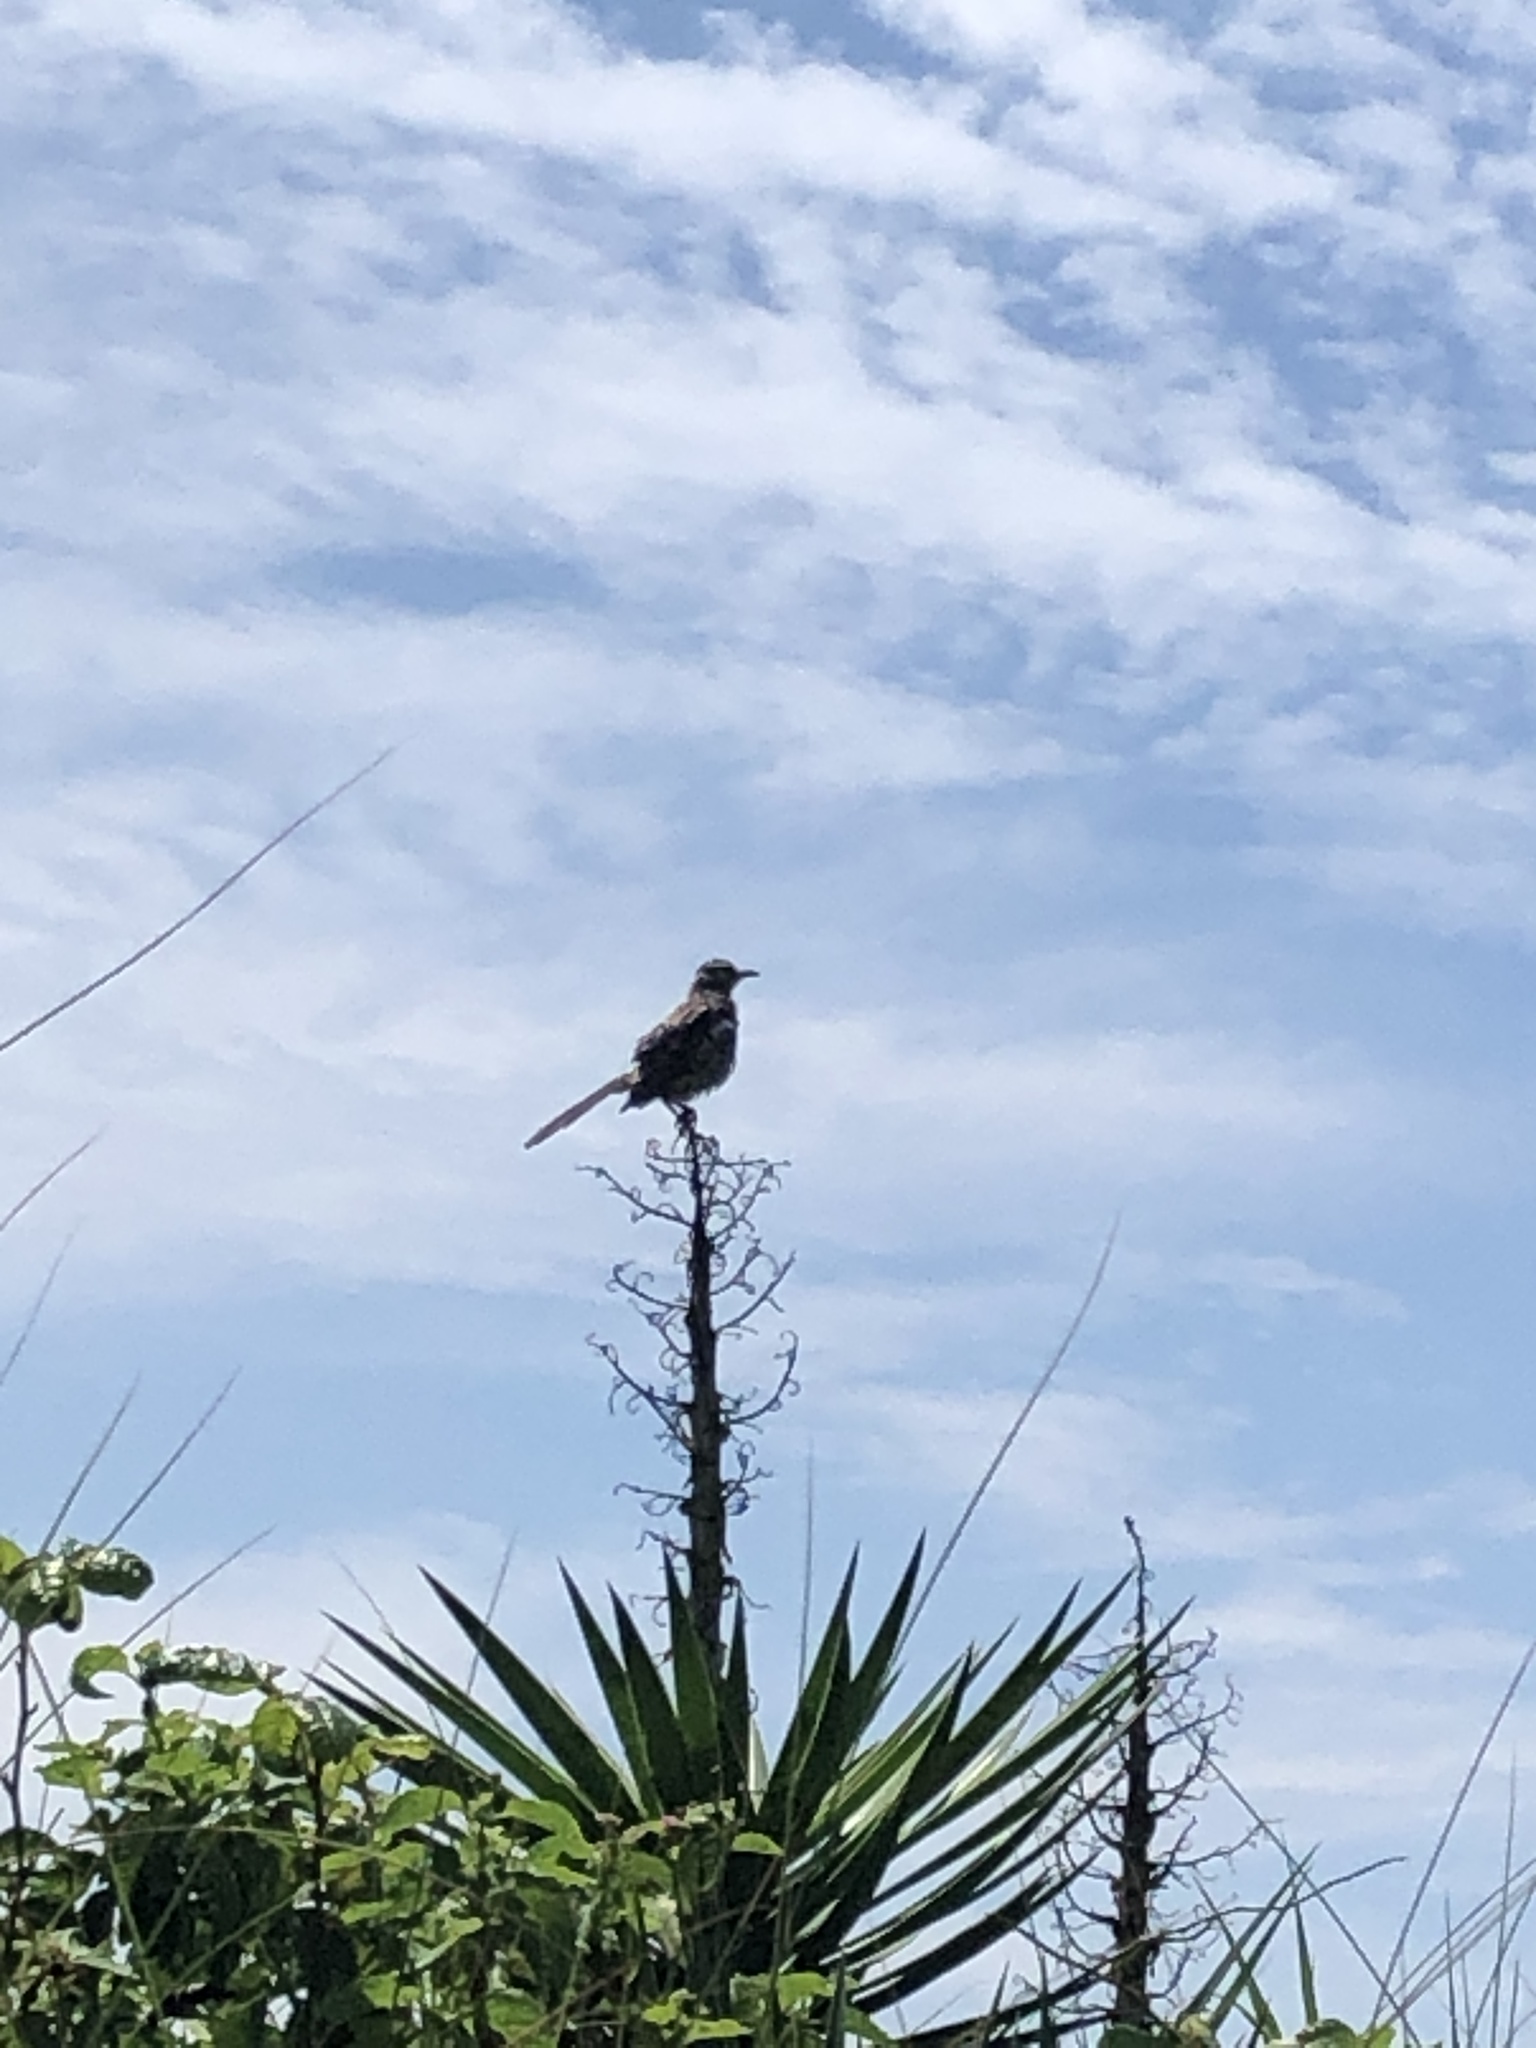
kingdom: Animalia
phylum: Chordata
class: Aves
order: Passeriformes
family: Mimidae
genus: Mimus
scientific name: Mimus polyglottos
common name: Northern mockingbird
